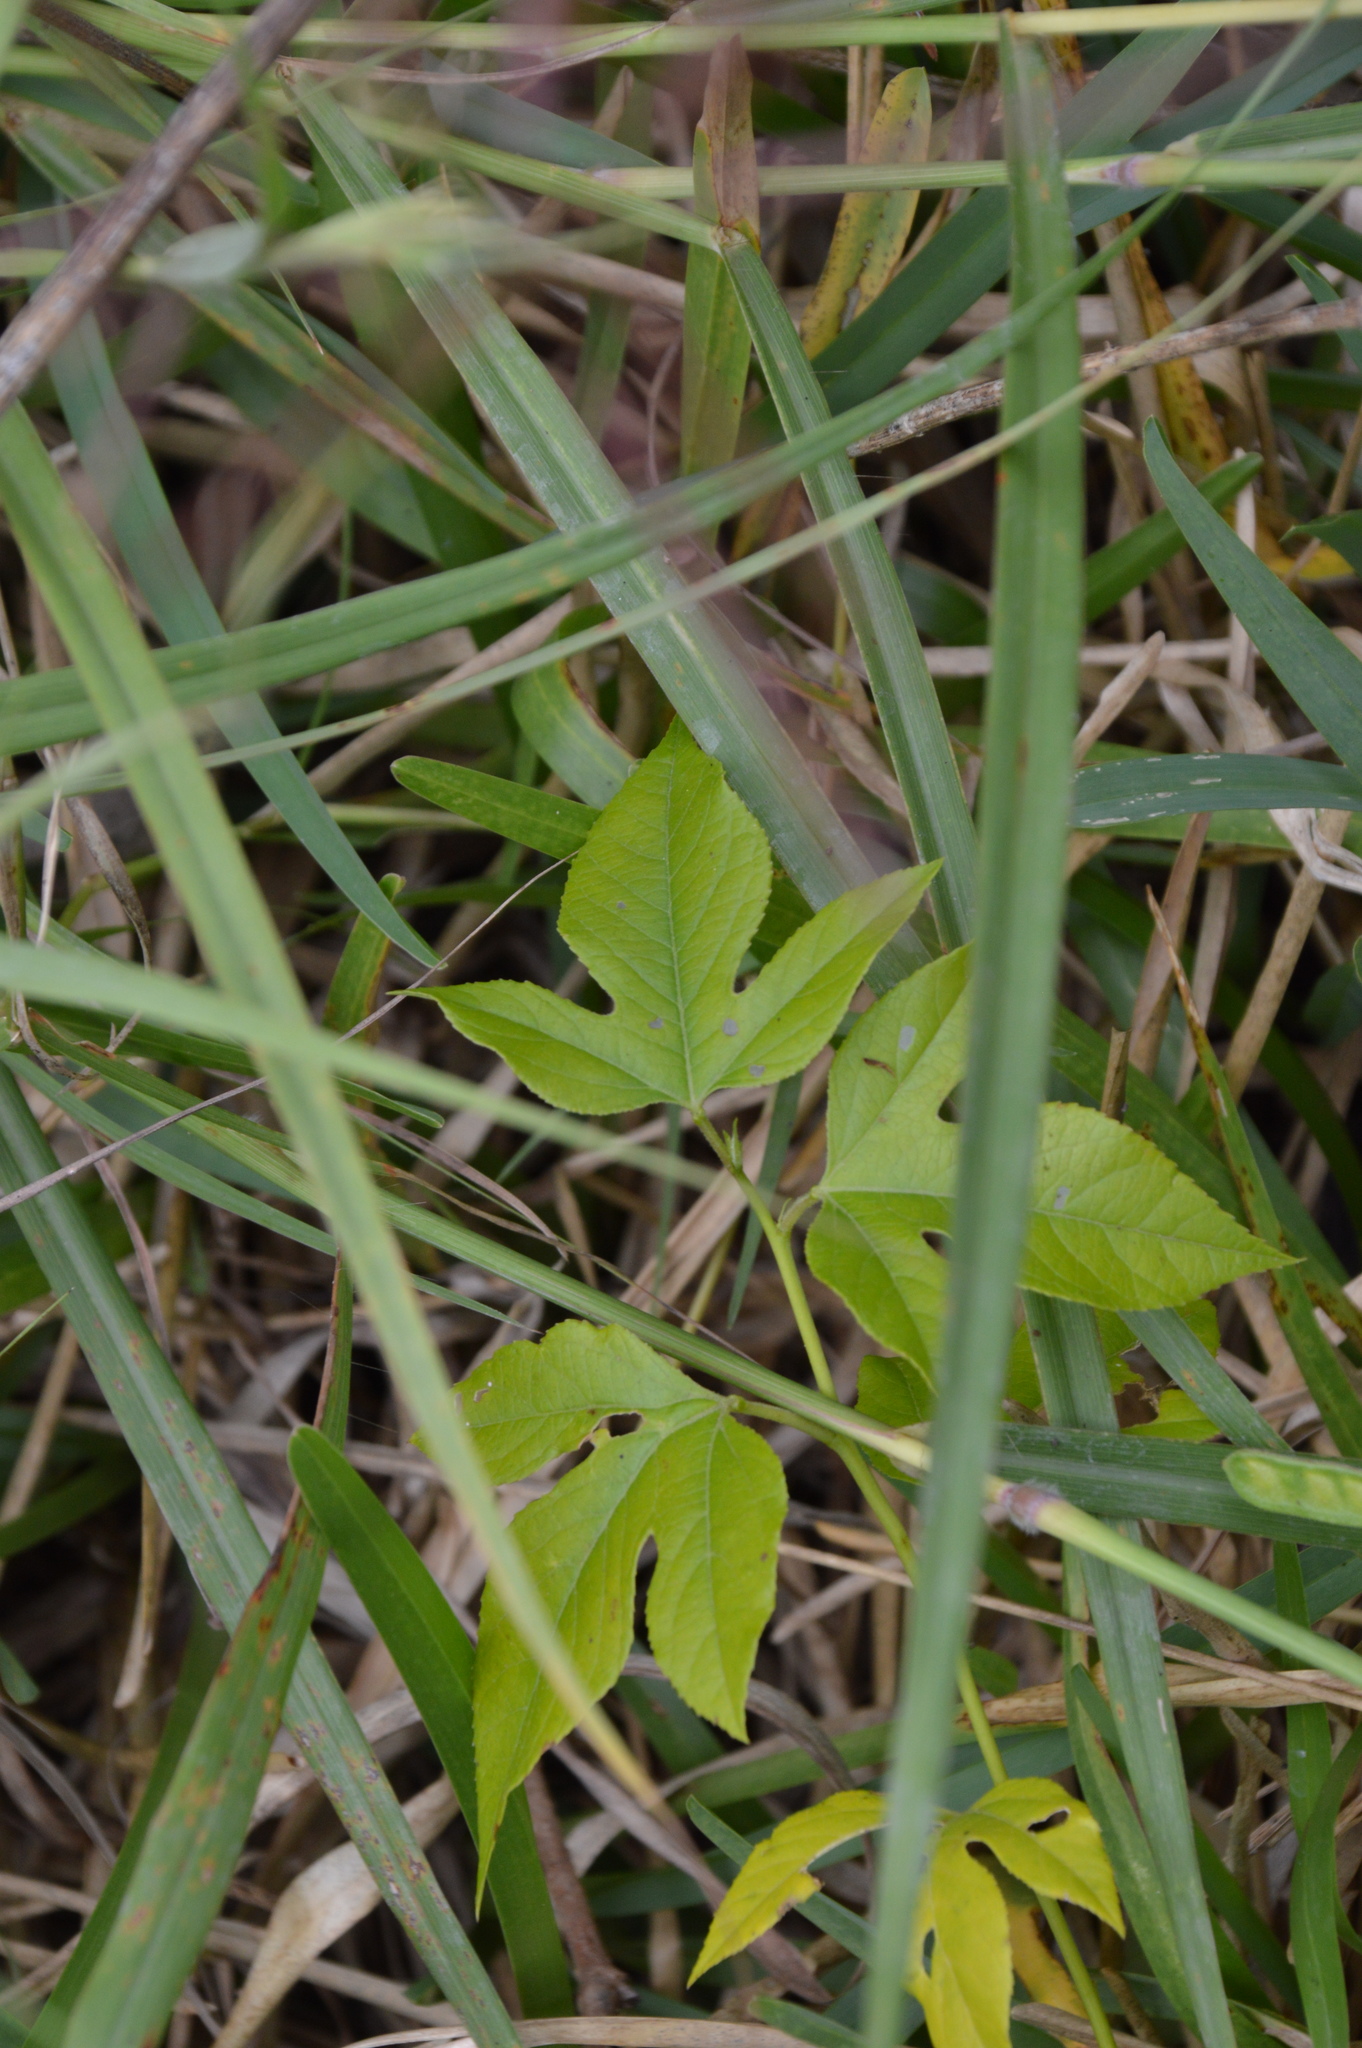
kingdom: Plantae
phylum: Tracheophyta
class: Magnoliopsida
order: Malpighiales
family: Passifloraceae
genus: Passiflora
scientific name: Passiflora incarnata
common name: Apricot-vine
